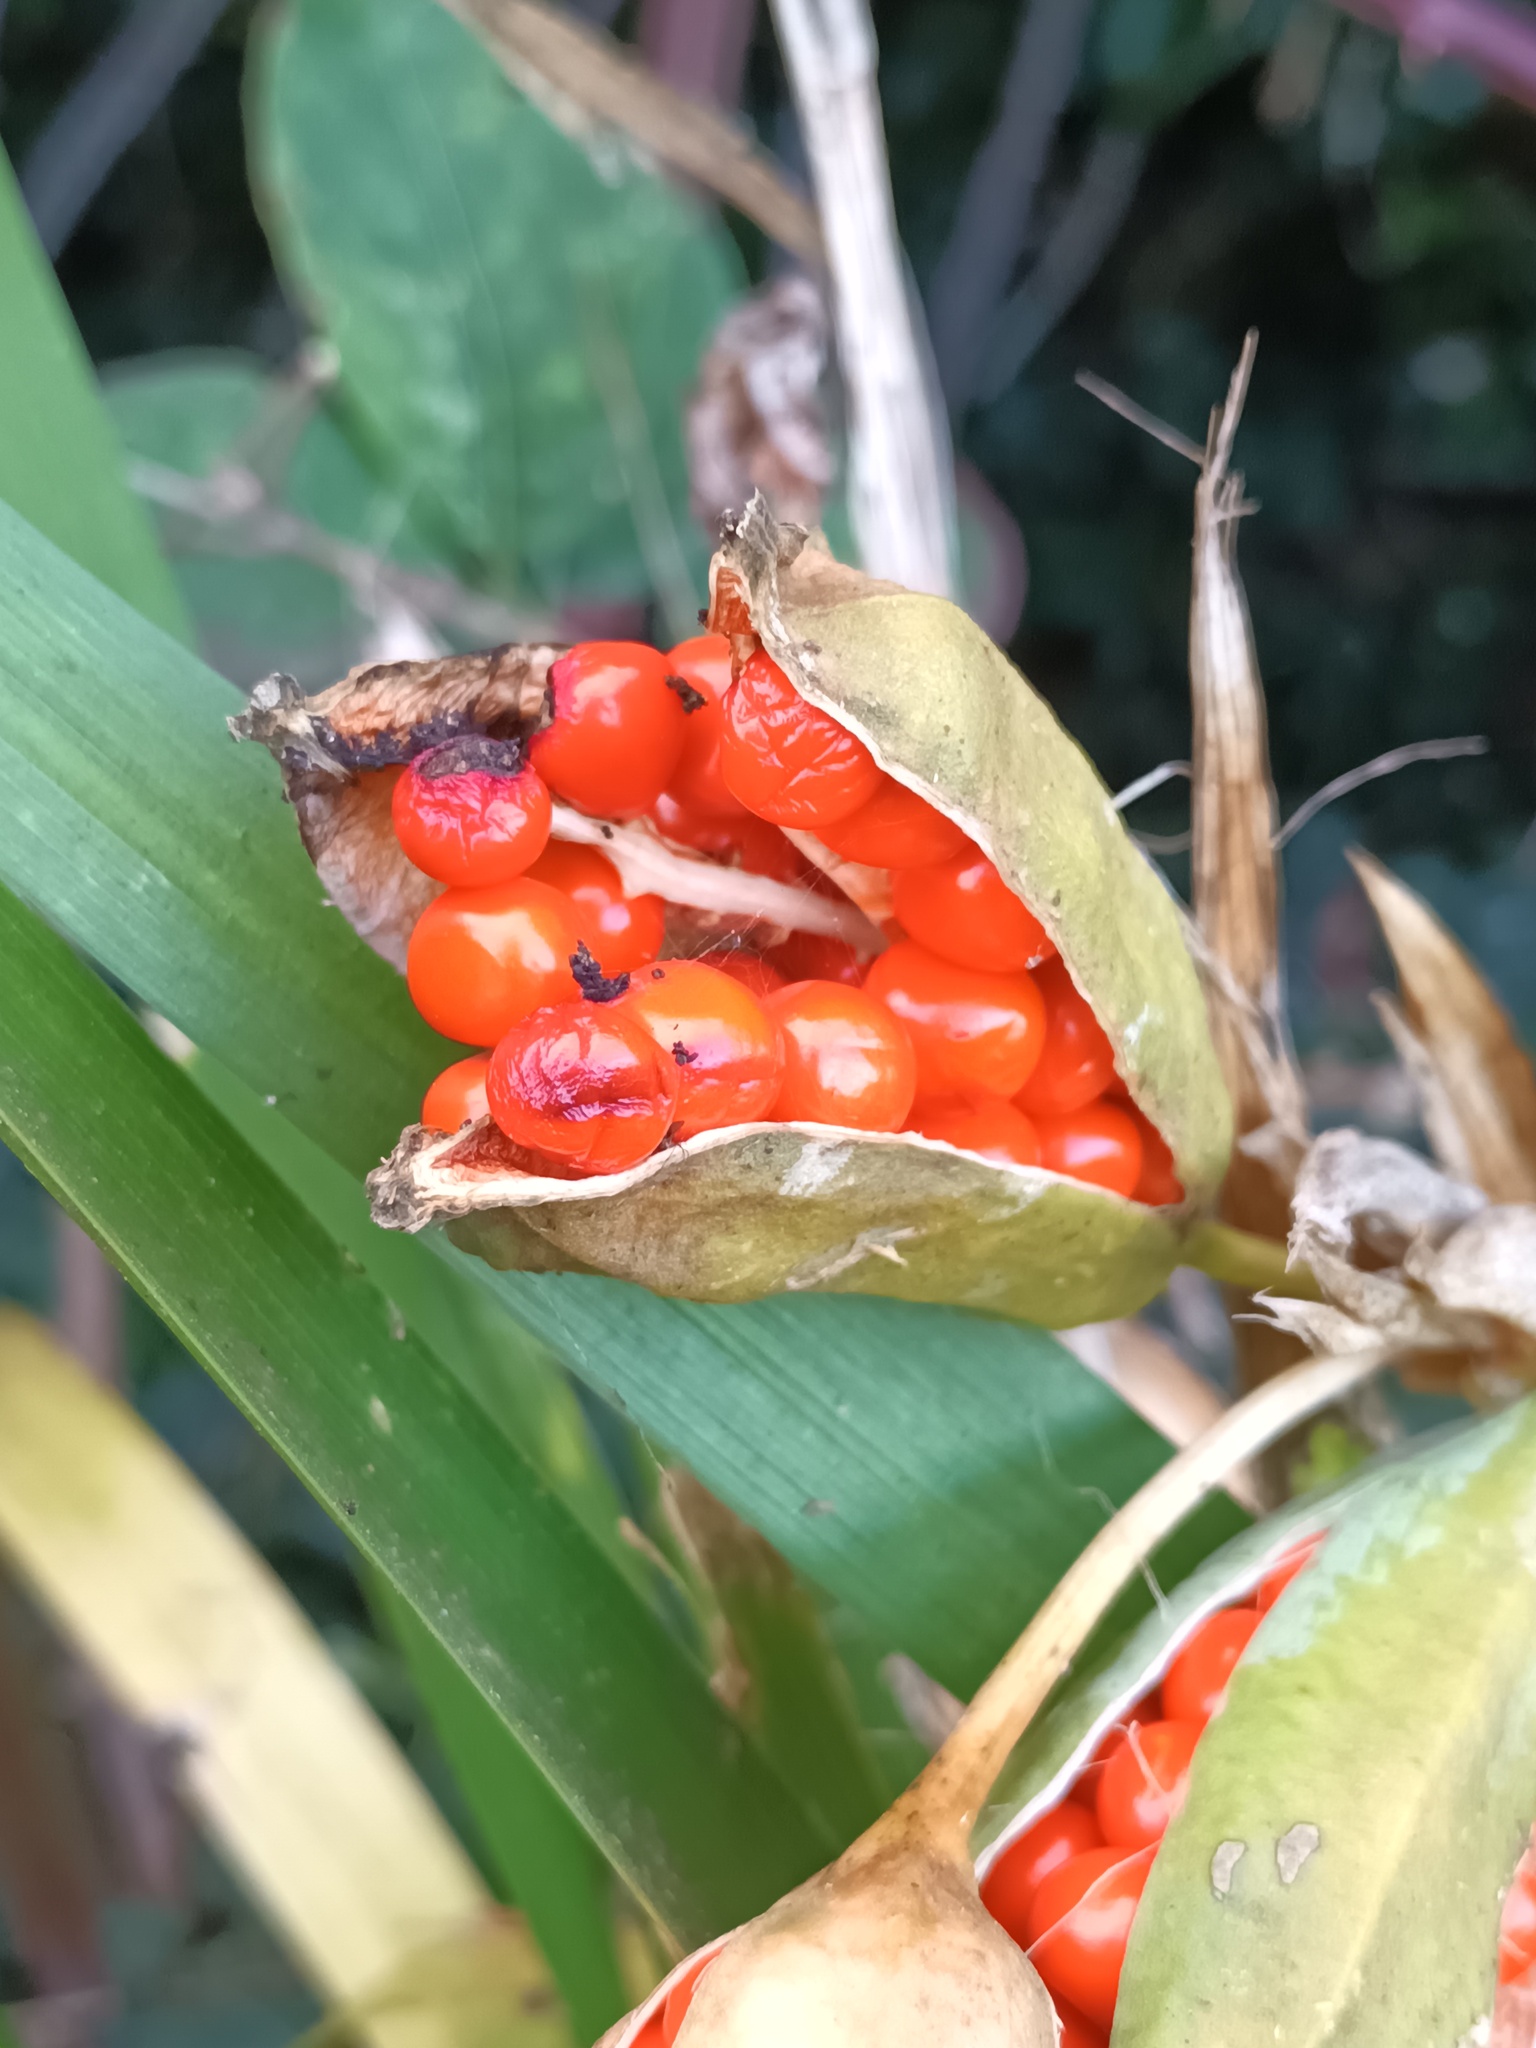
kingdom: Plantae
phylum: Tracheophyta
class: Liliopsida
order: Asparagales
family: Iridaceae
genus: Iris
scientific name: Iris foetidissima
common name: Stinking iris
